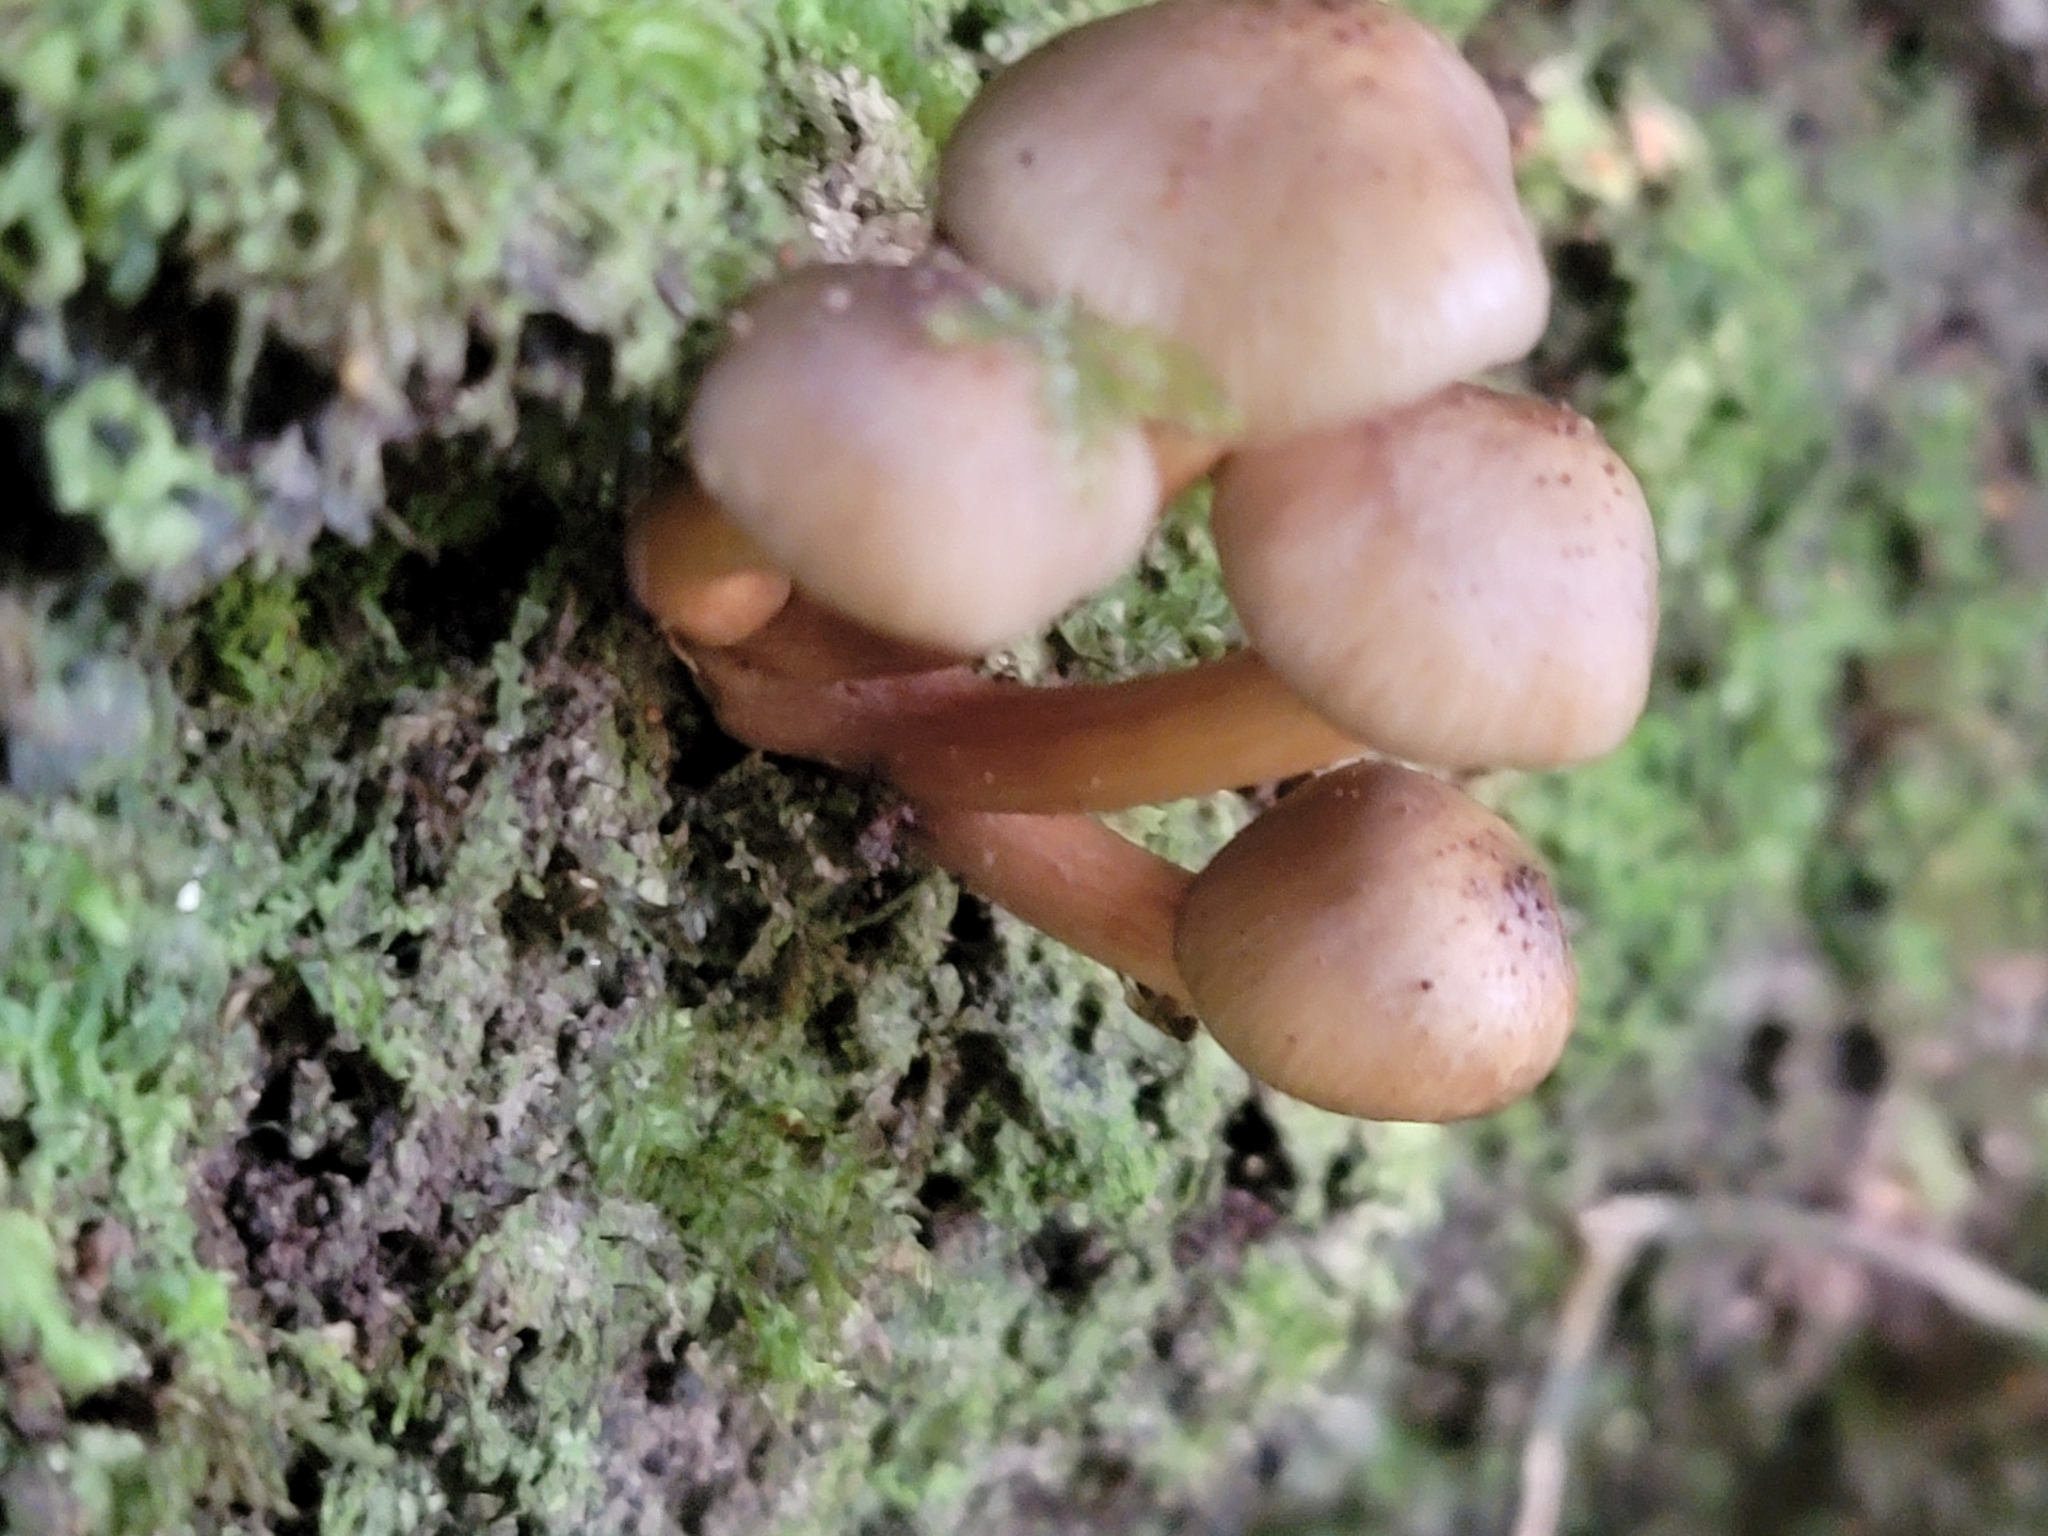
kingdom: Fungi
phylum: Basidiomycota
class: Agaricomycetes
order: Agaricales
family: Physalacriaceae
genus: Armillaria
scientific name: Armillaria novae-zelandiae
